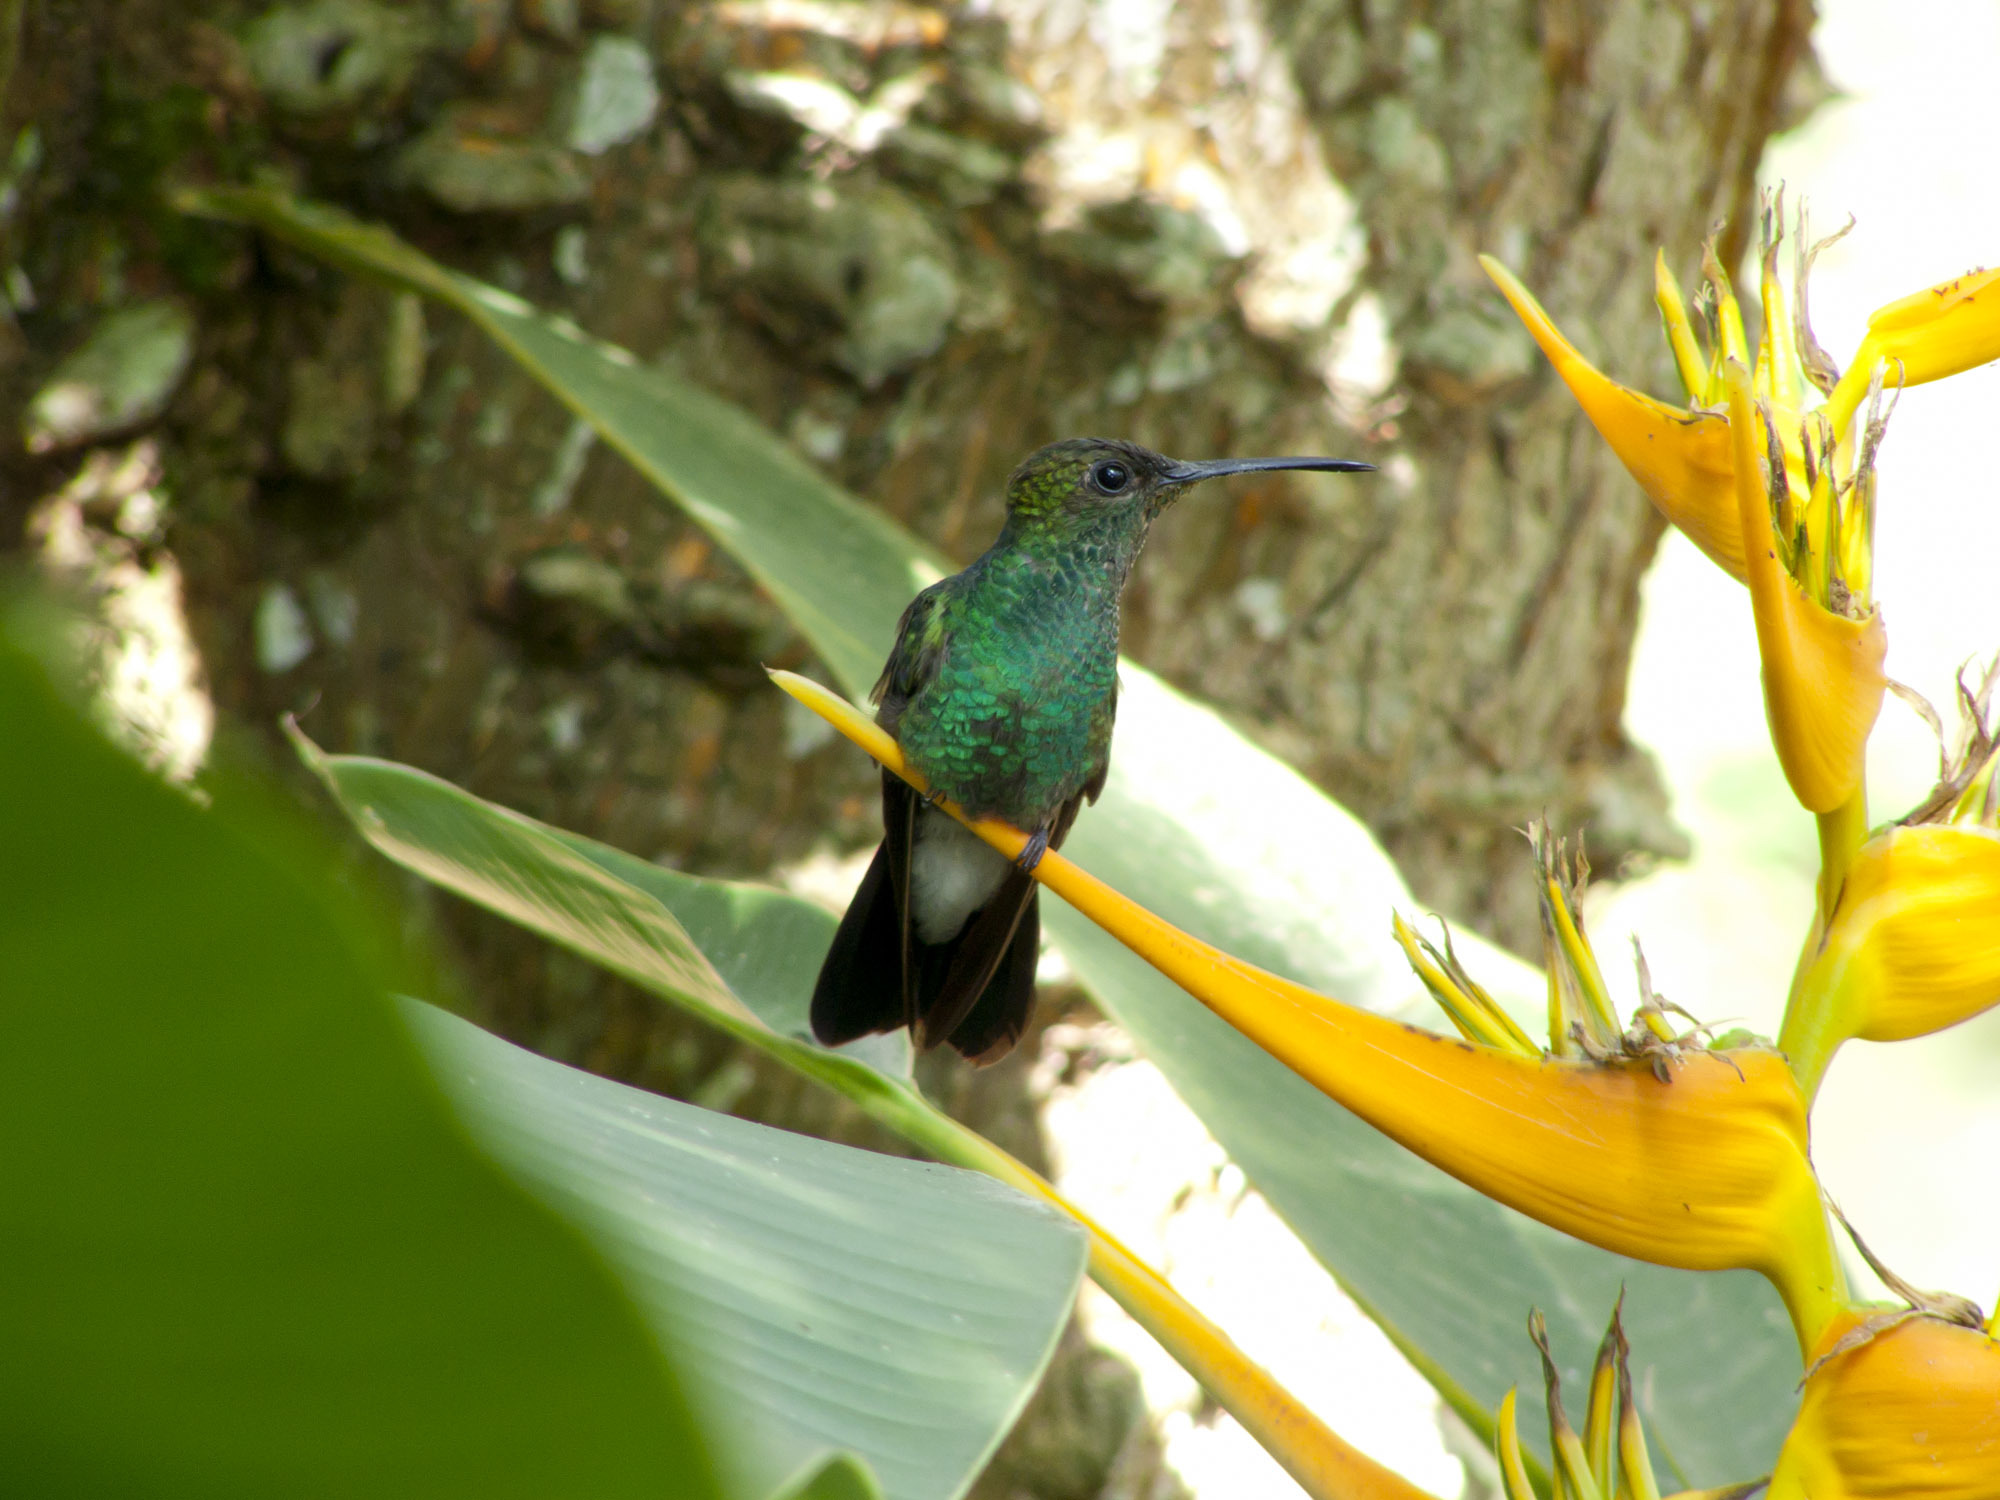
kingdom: Animalia
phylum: Chordata
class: Aves
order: Apodiformes
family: Trochilidae
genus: Chalybura
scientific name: Chalybura buffonii
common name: White-vented plumeleteer
